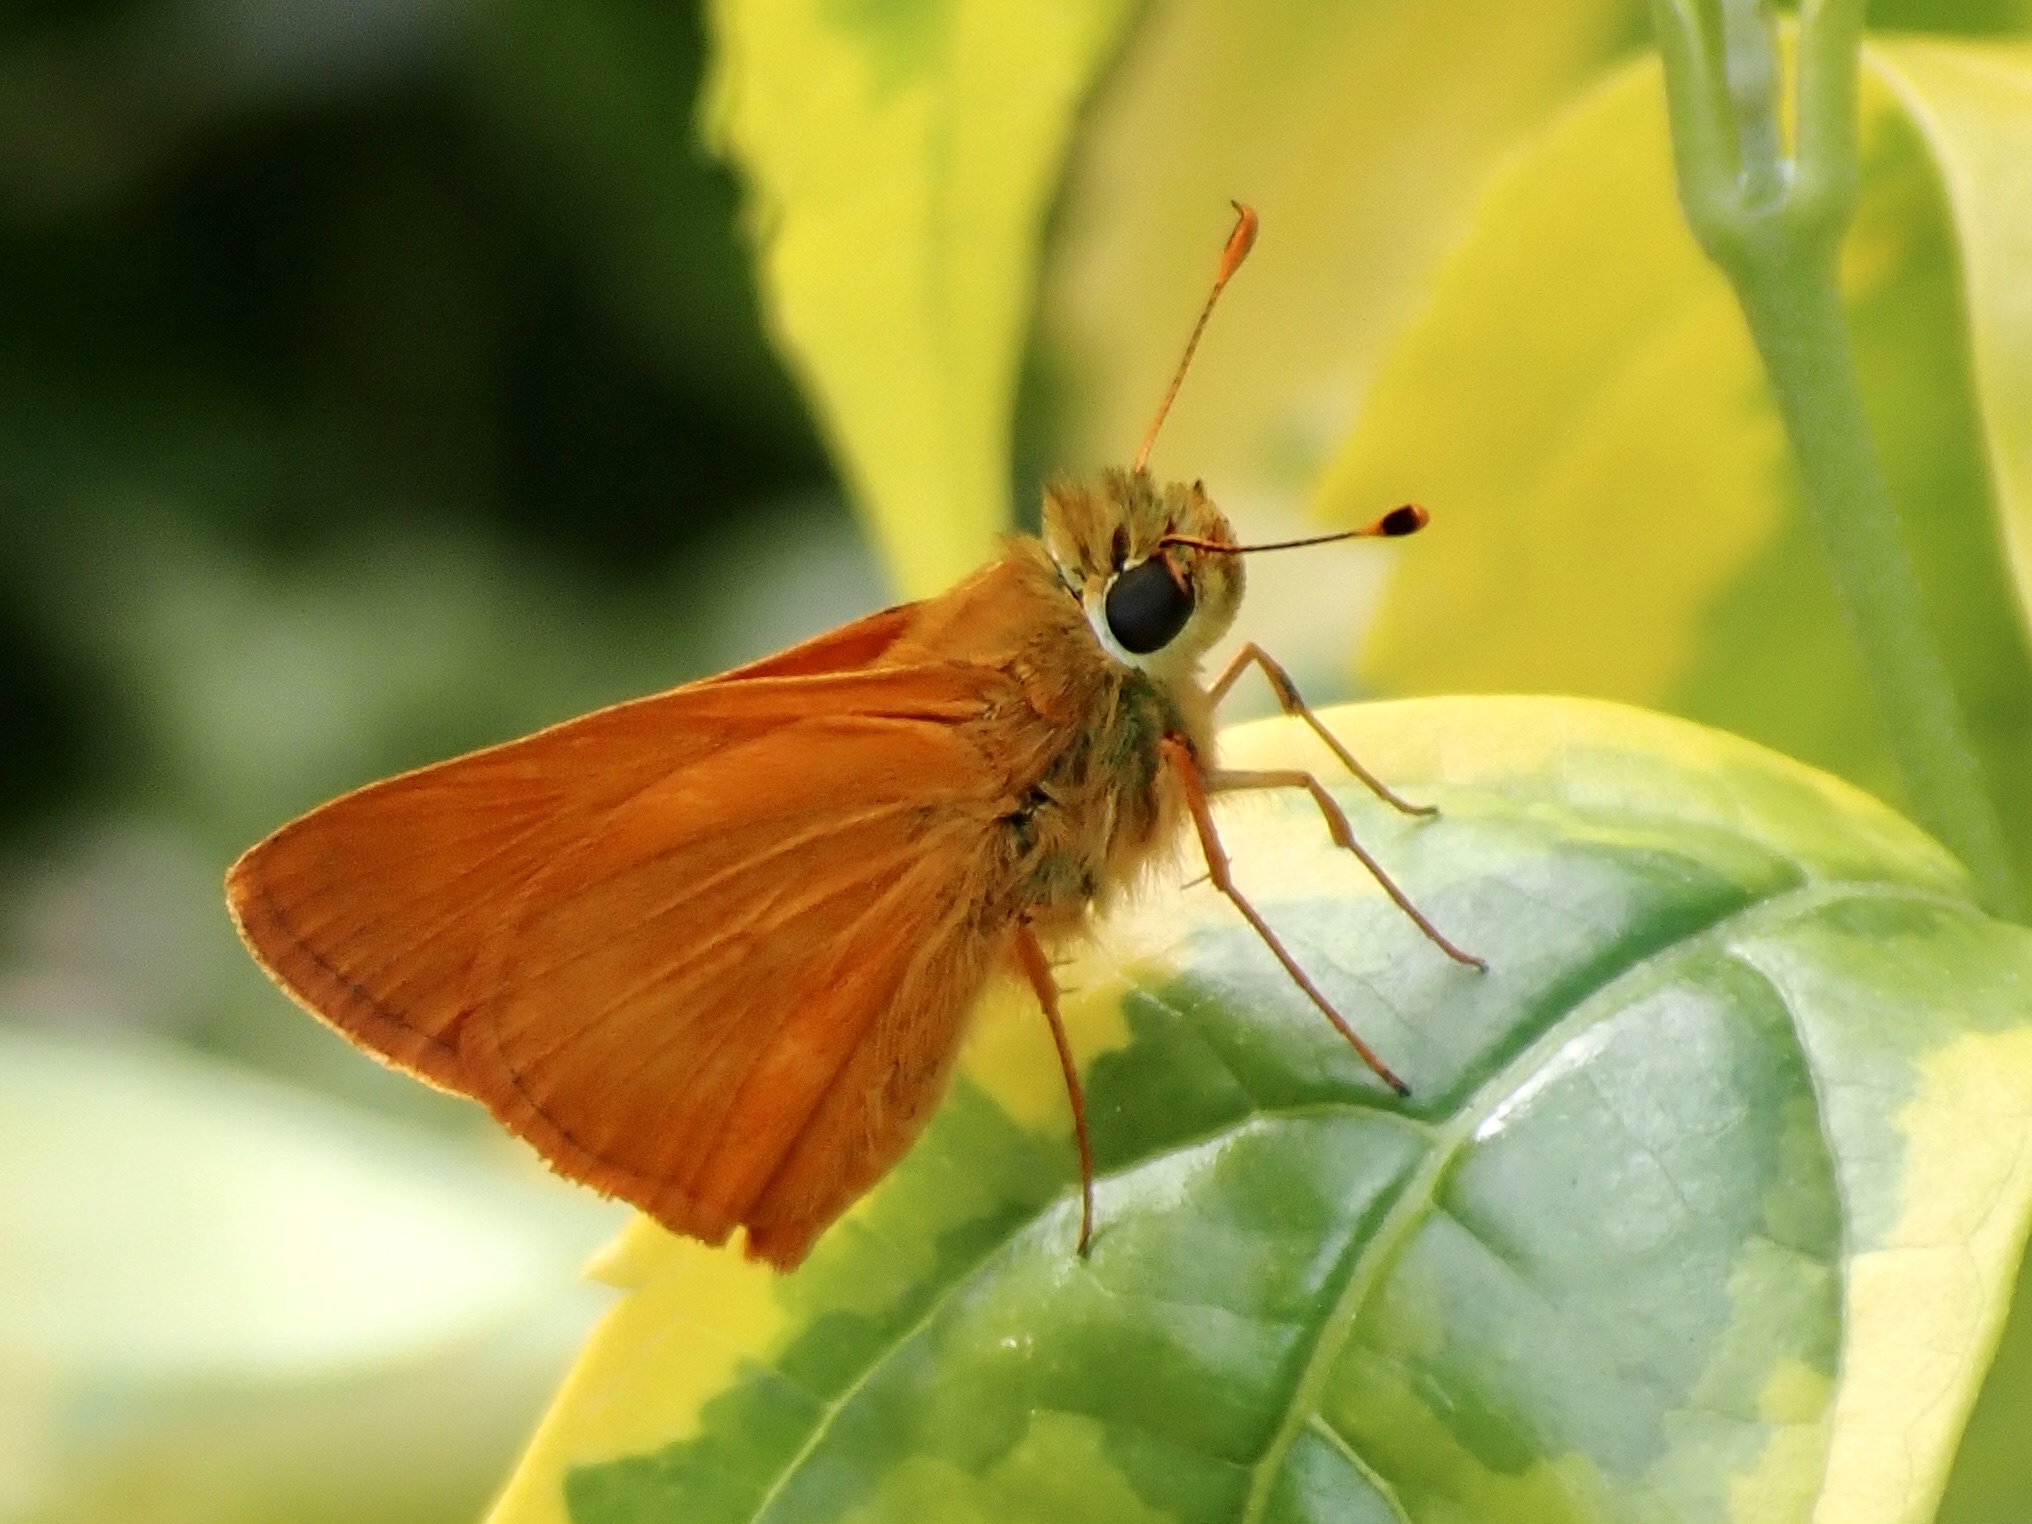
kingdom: Animalia
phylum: Arthropoda
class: Insecta
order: Lepidoptera
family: Hesperiidae
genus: Polites
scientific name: Polites
